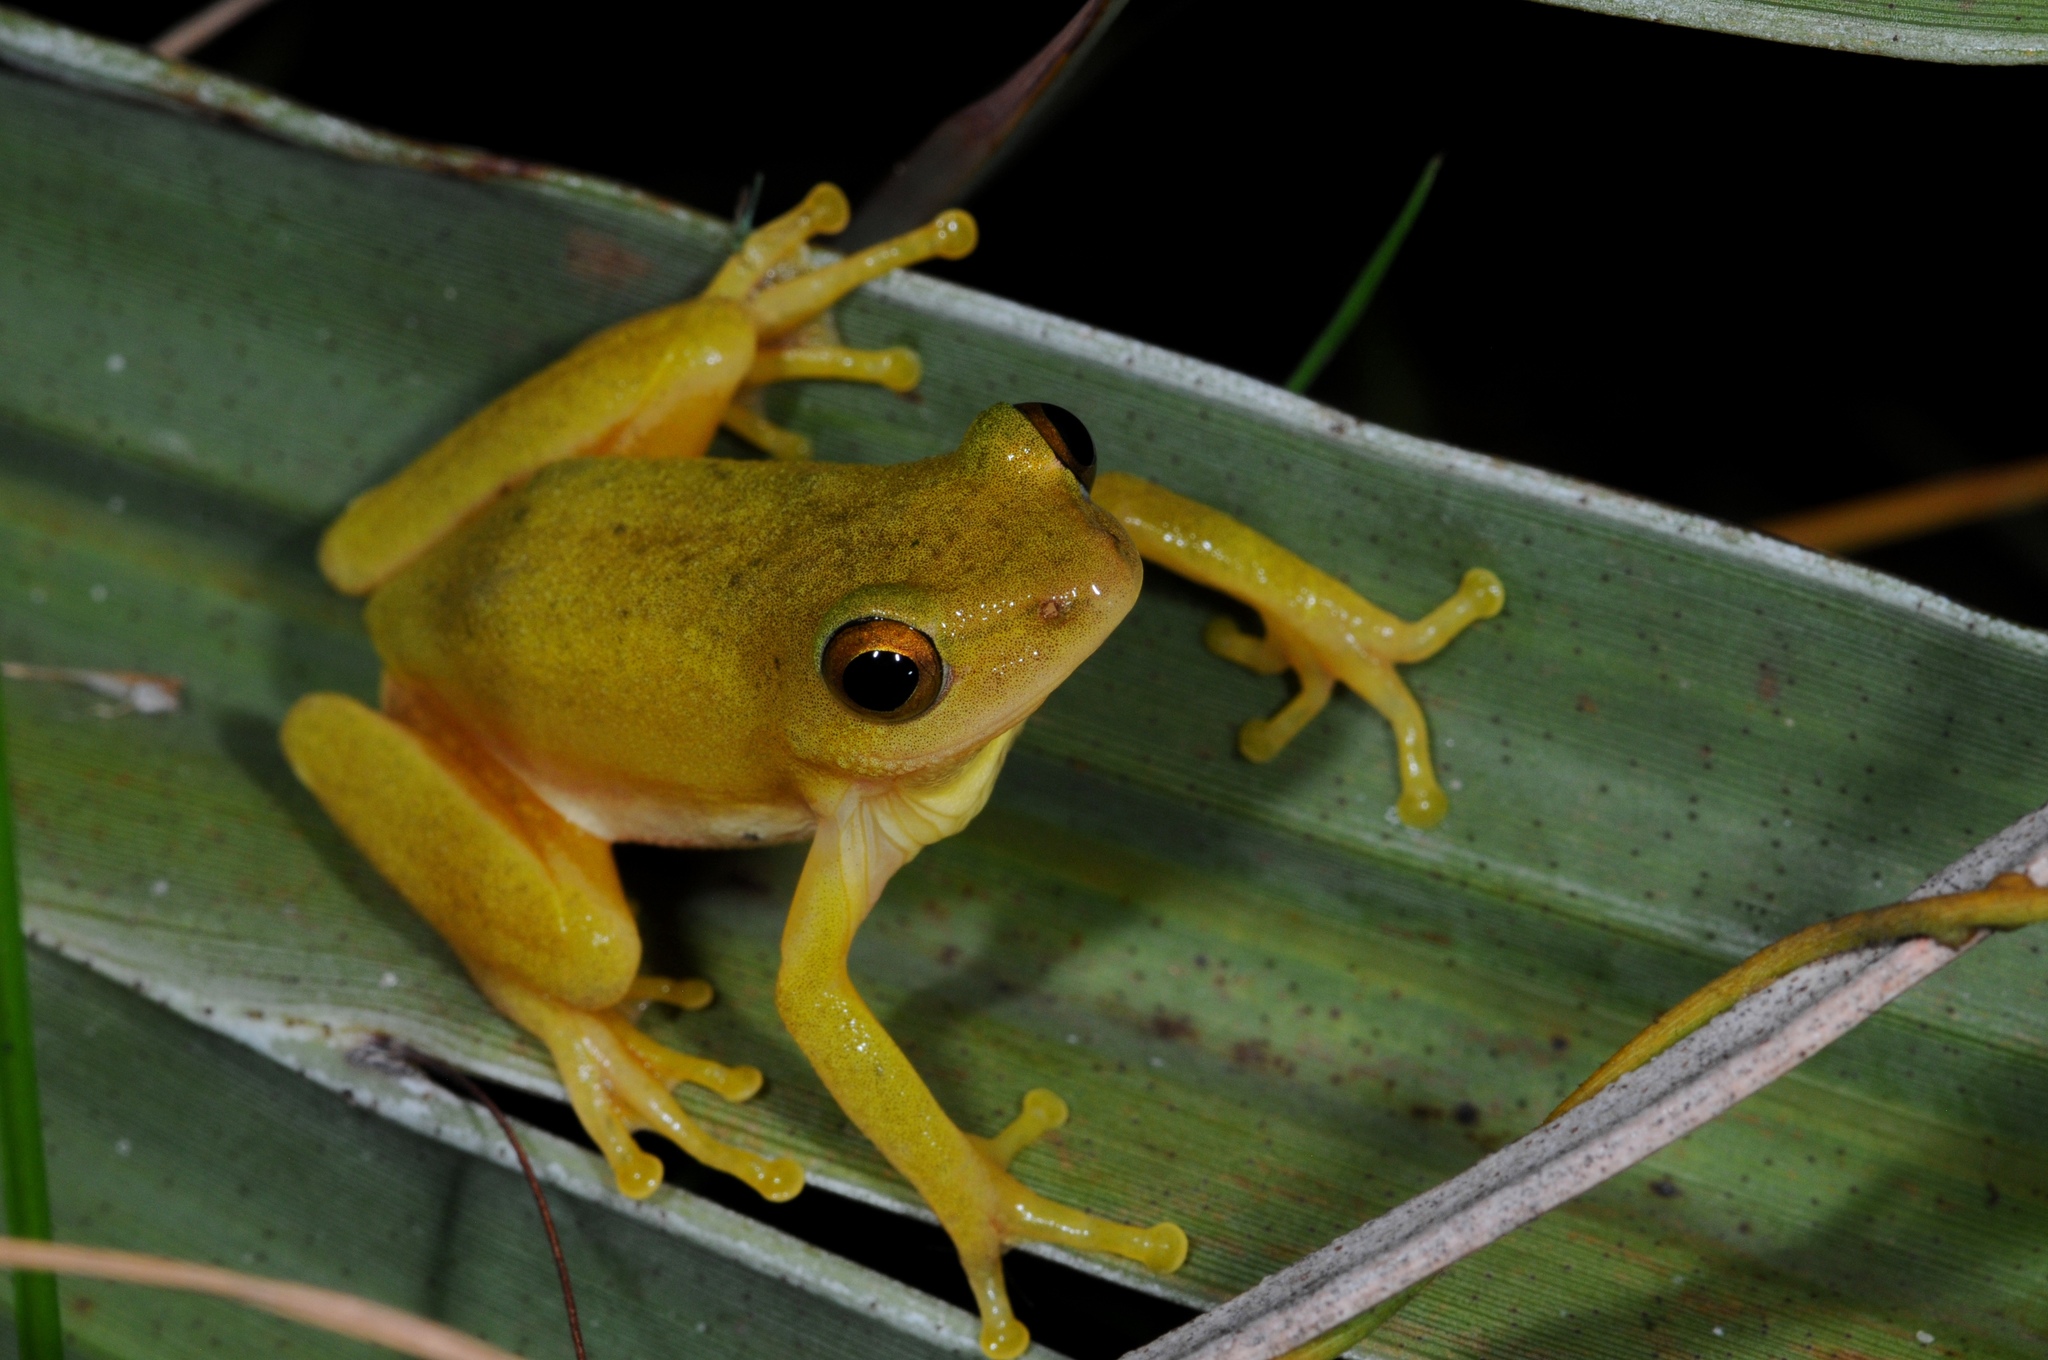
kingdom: Animalia
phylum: Chordata
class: Amphibia
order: Anura
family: Hyperoliidae
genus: Hyperolius
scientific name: Hyperolius tuberilinguis
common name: Tinker reed frog
